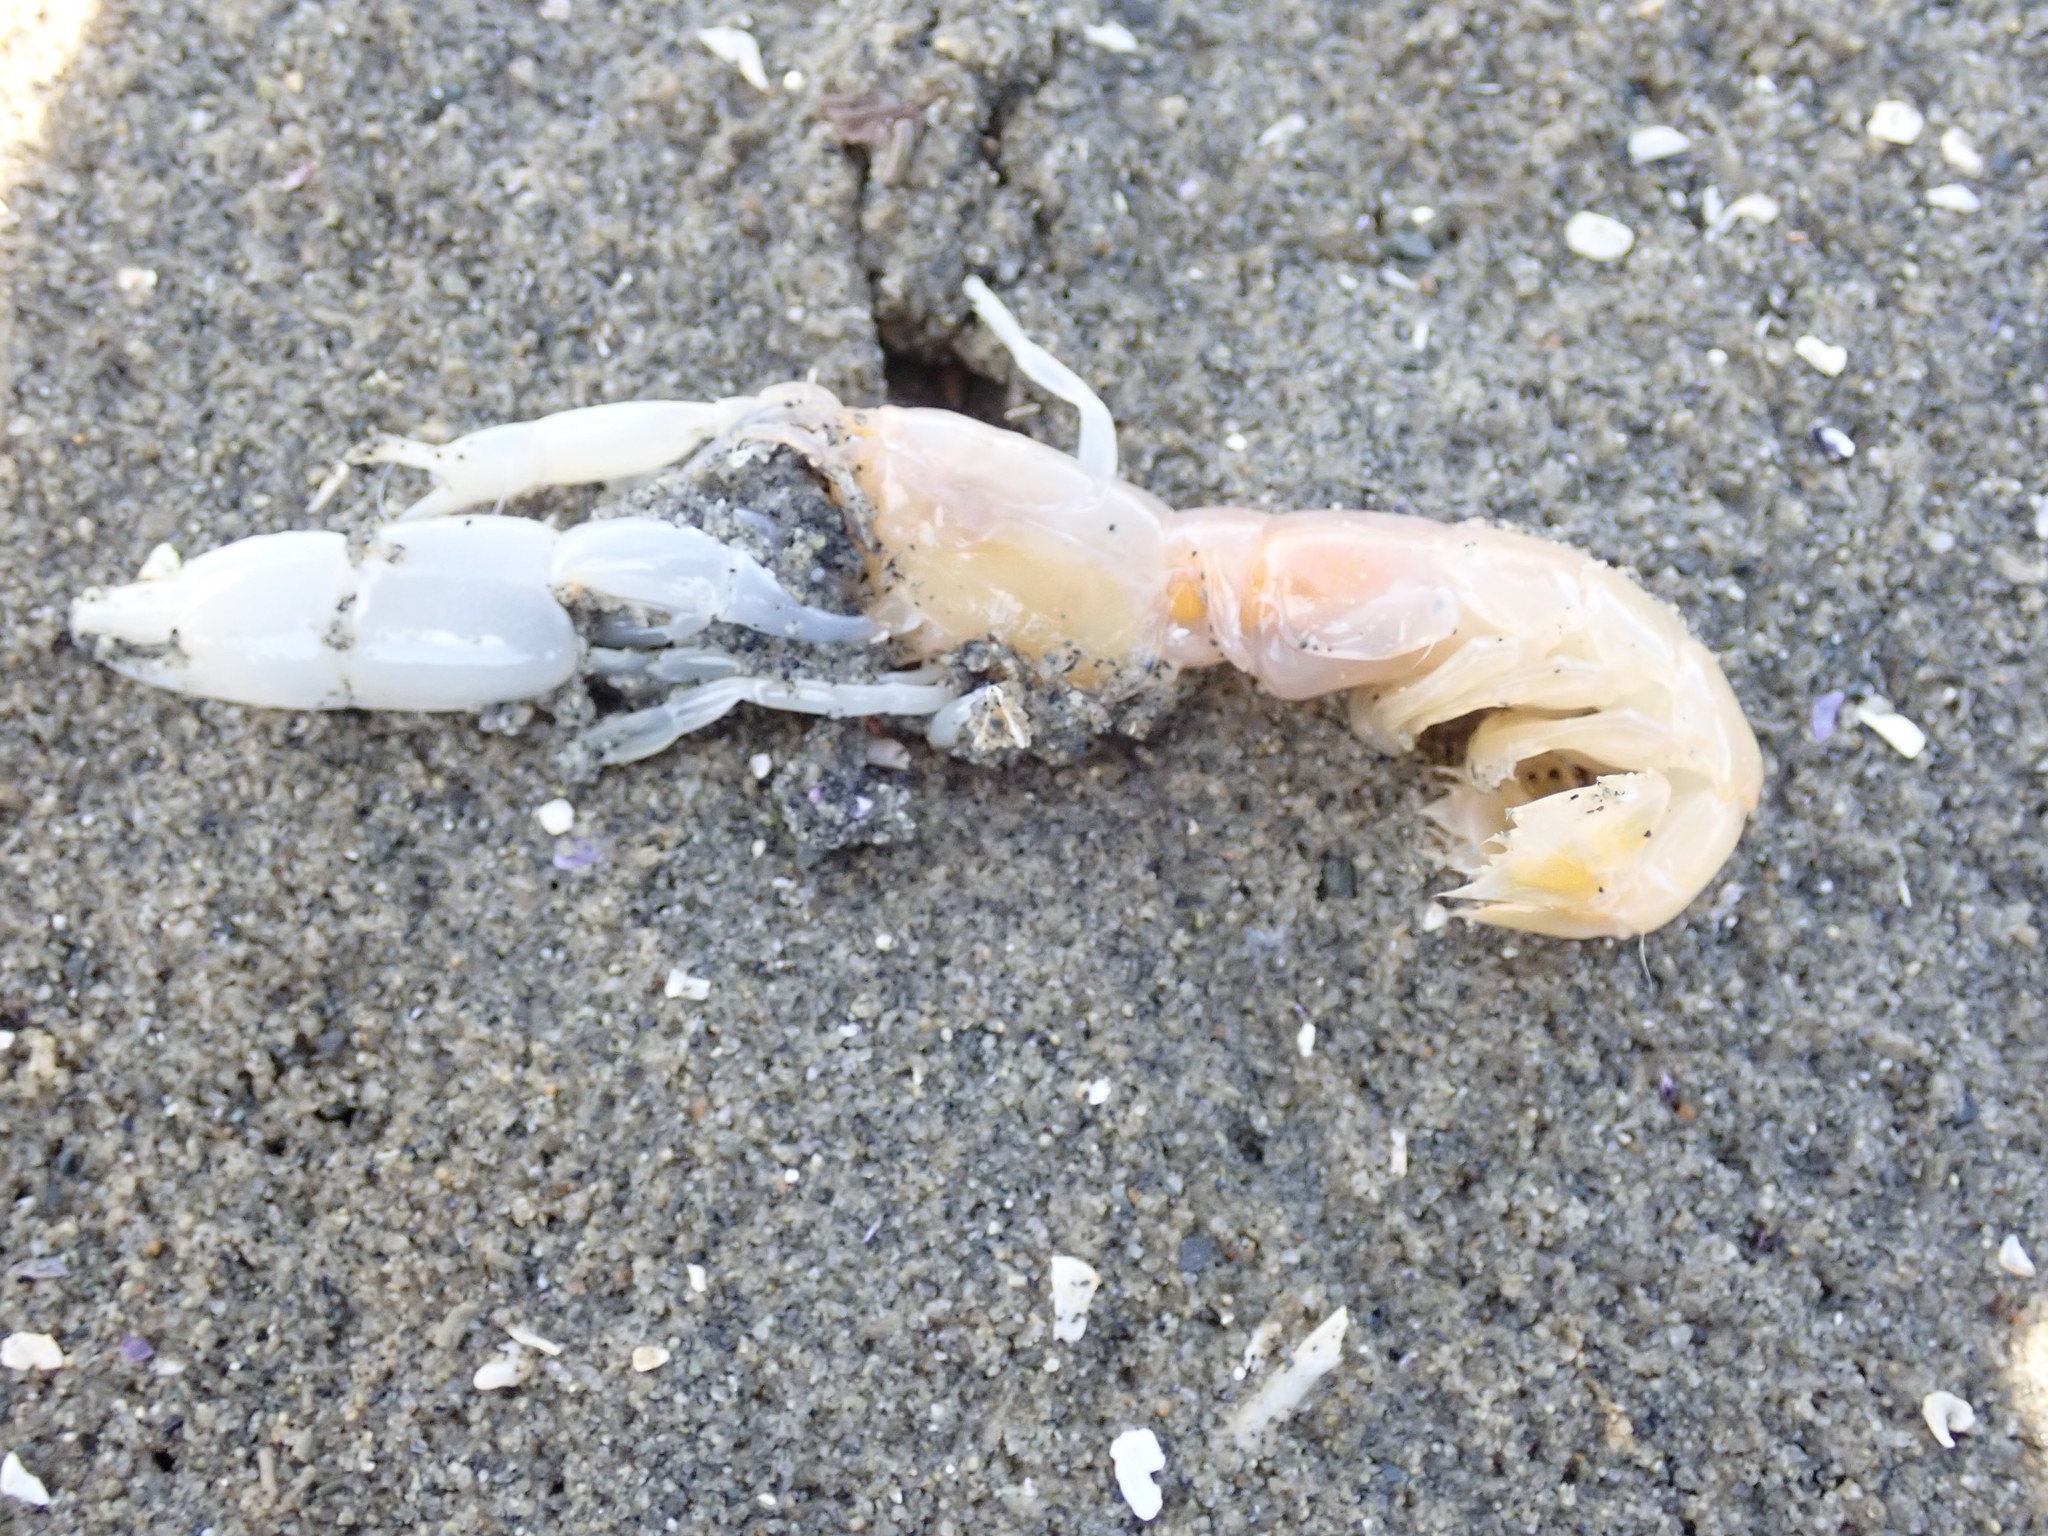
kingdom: Animalia
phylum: Arthropoda
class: Malacostraca
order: Decapoda
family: Callianassidae
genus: Neotrypaea
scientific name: Neotrypaea californiensis
